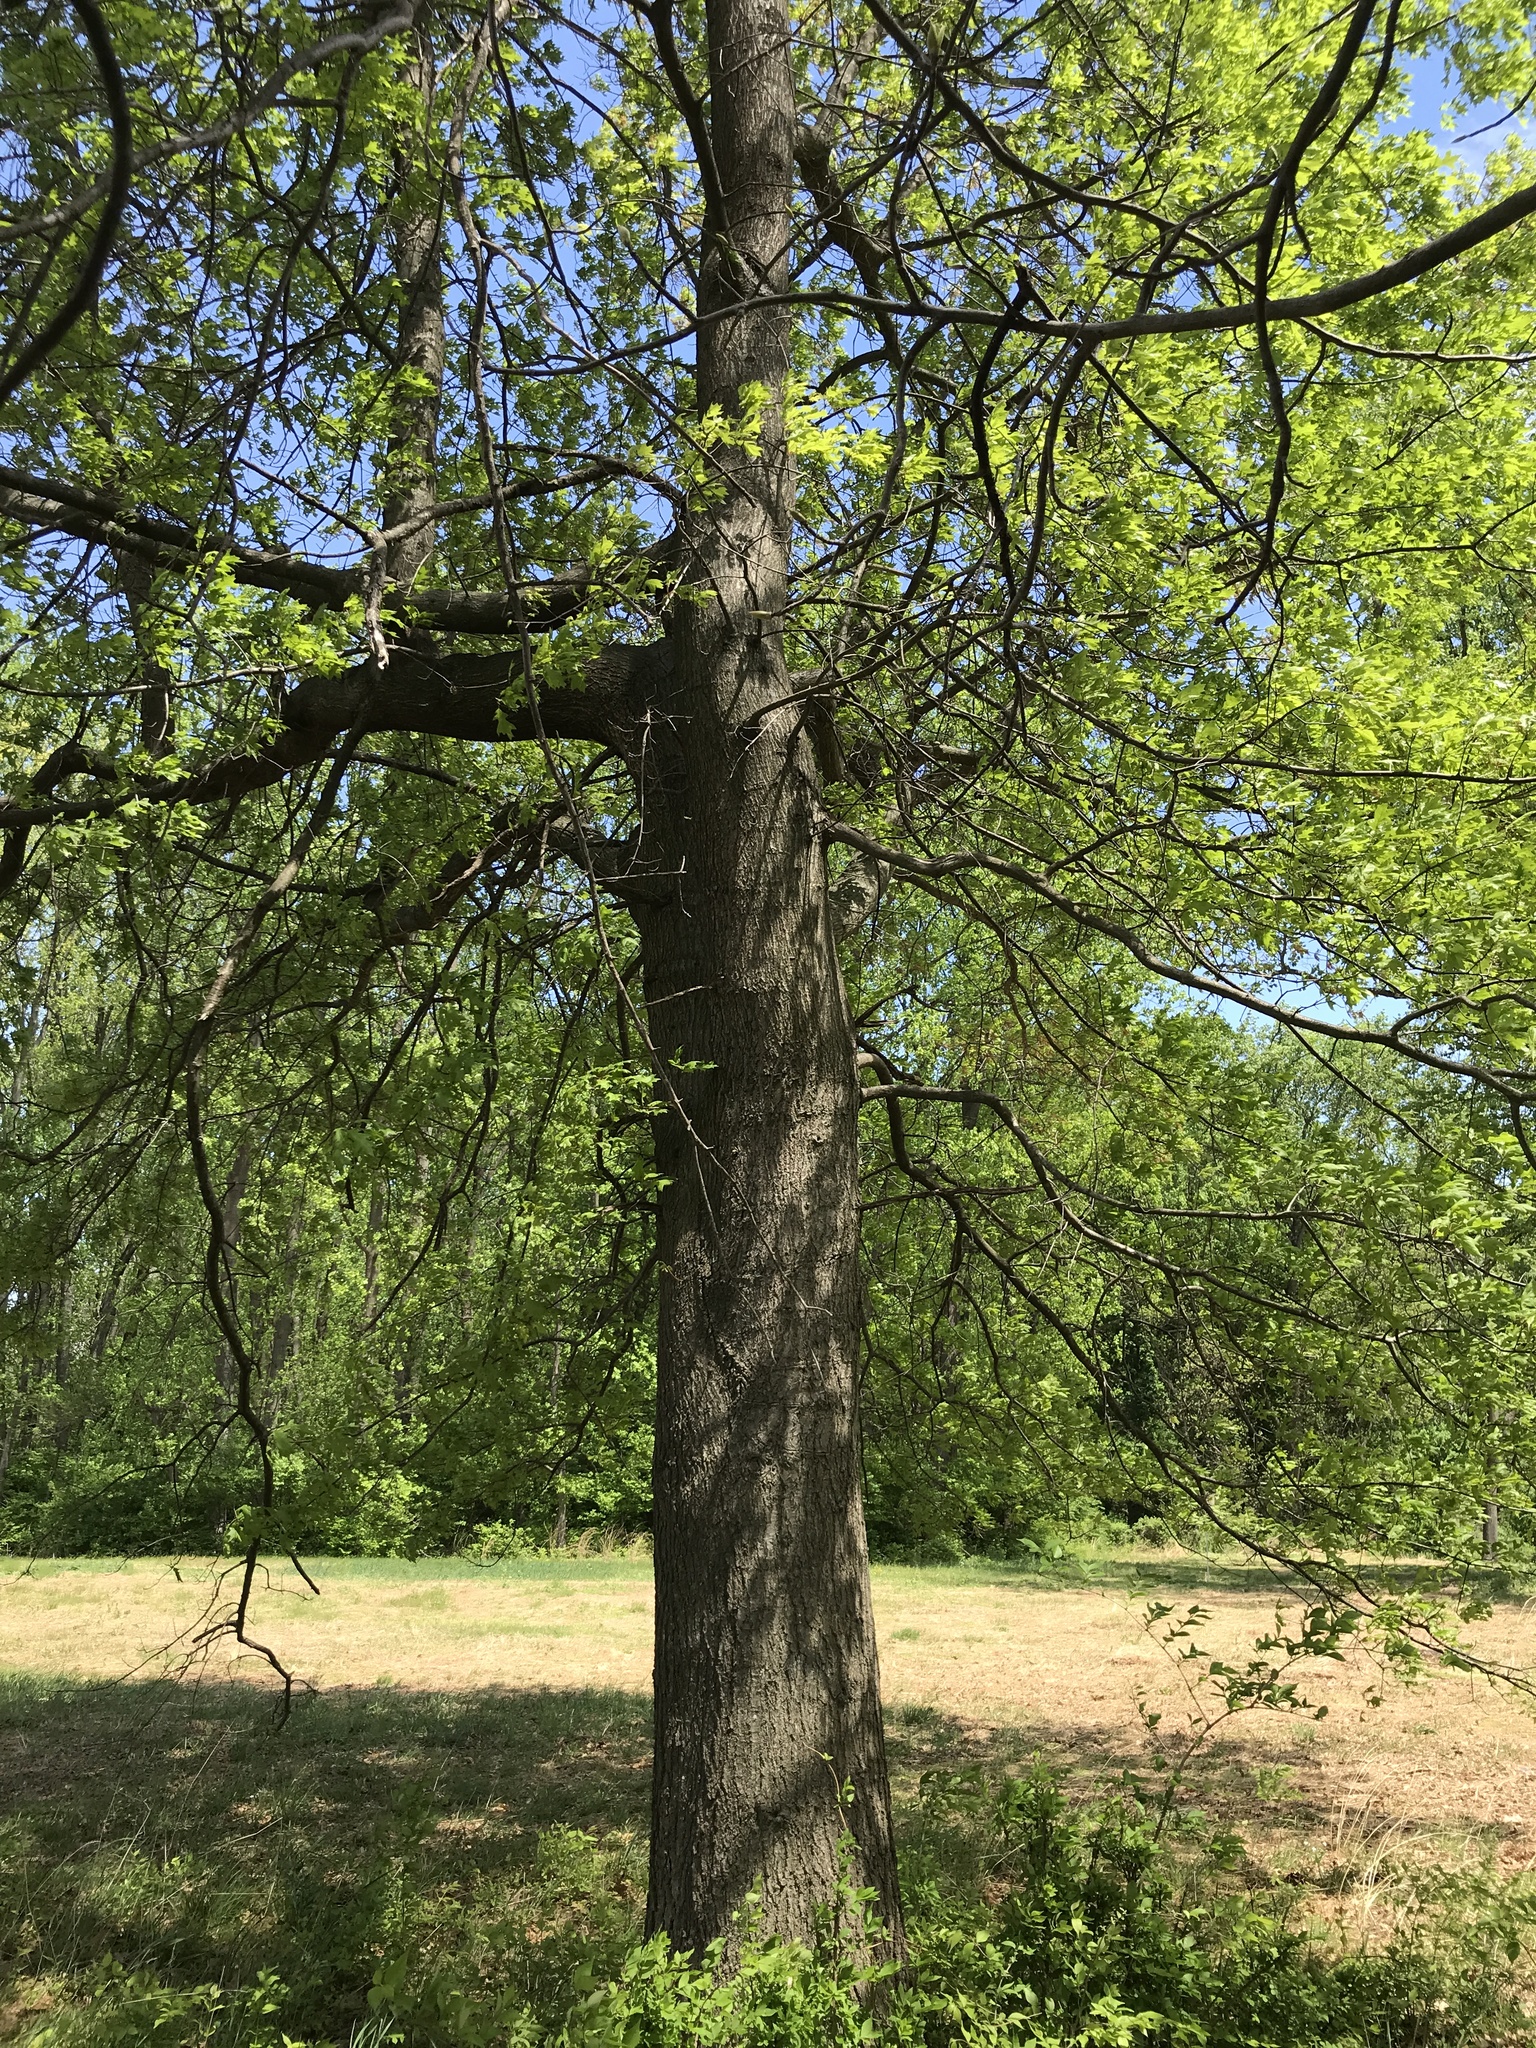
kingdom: Plantae
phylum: Tracheophyta
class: Magnoliopsida
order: Fagales
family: Fagaceae
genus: Quercus
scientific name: Quercus palustris
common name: Pin oak
